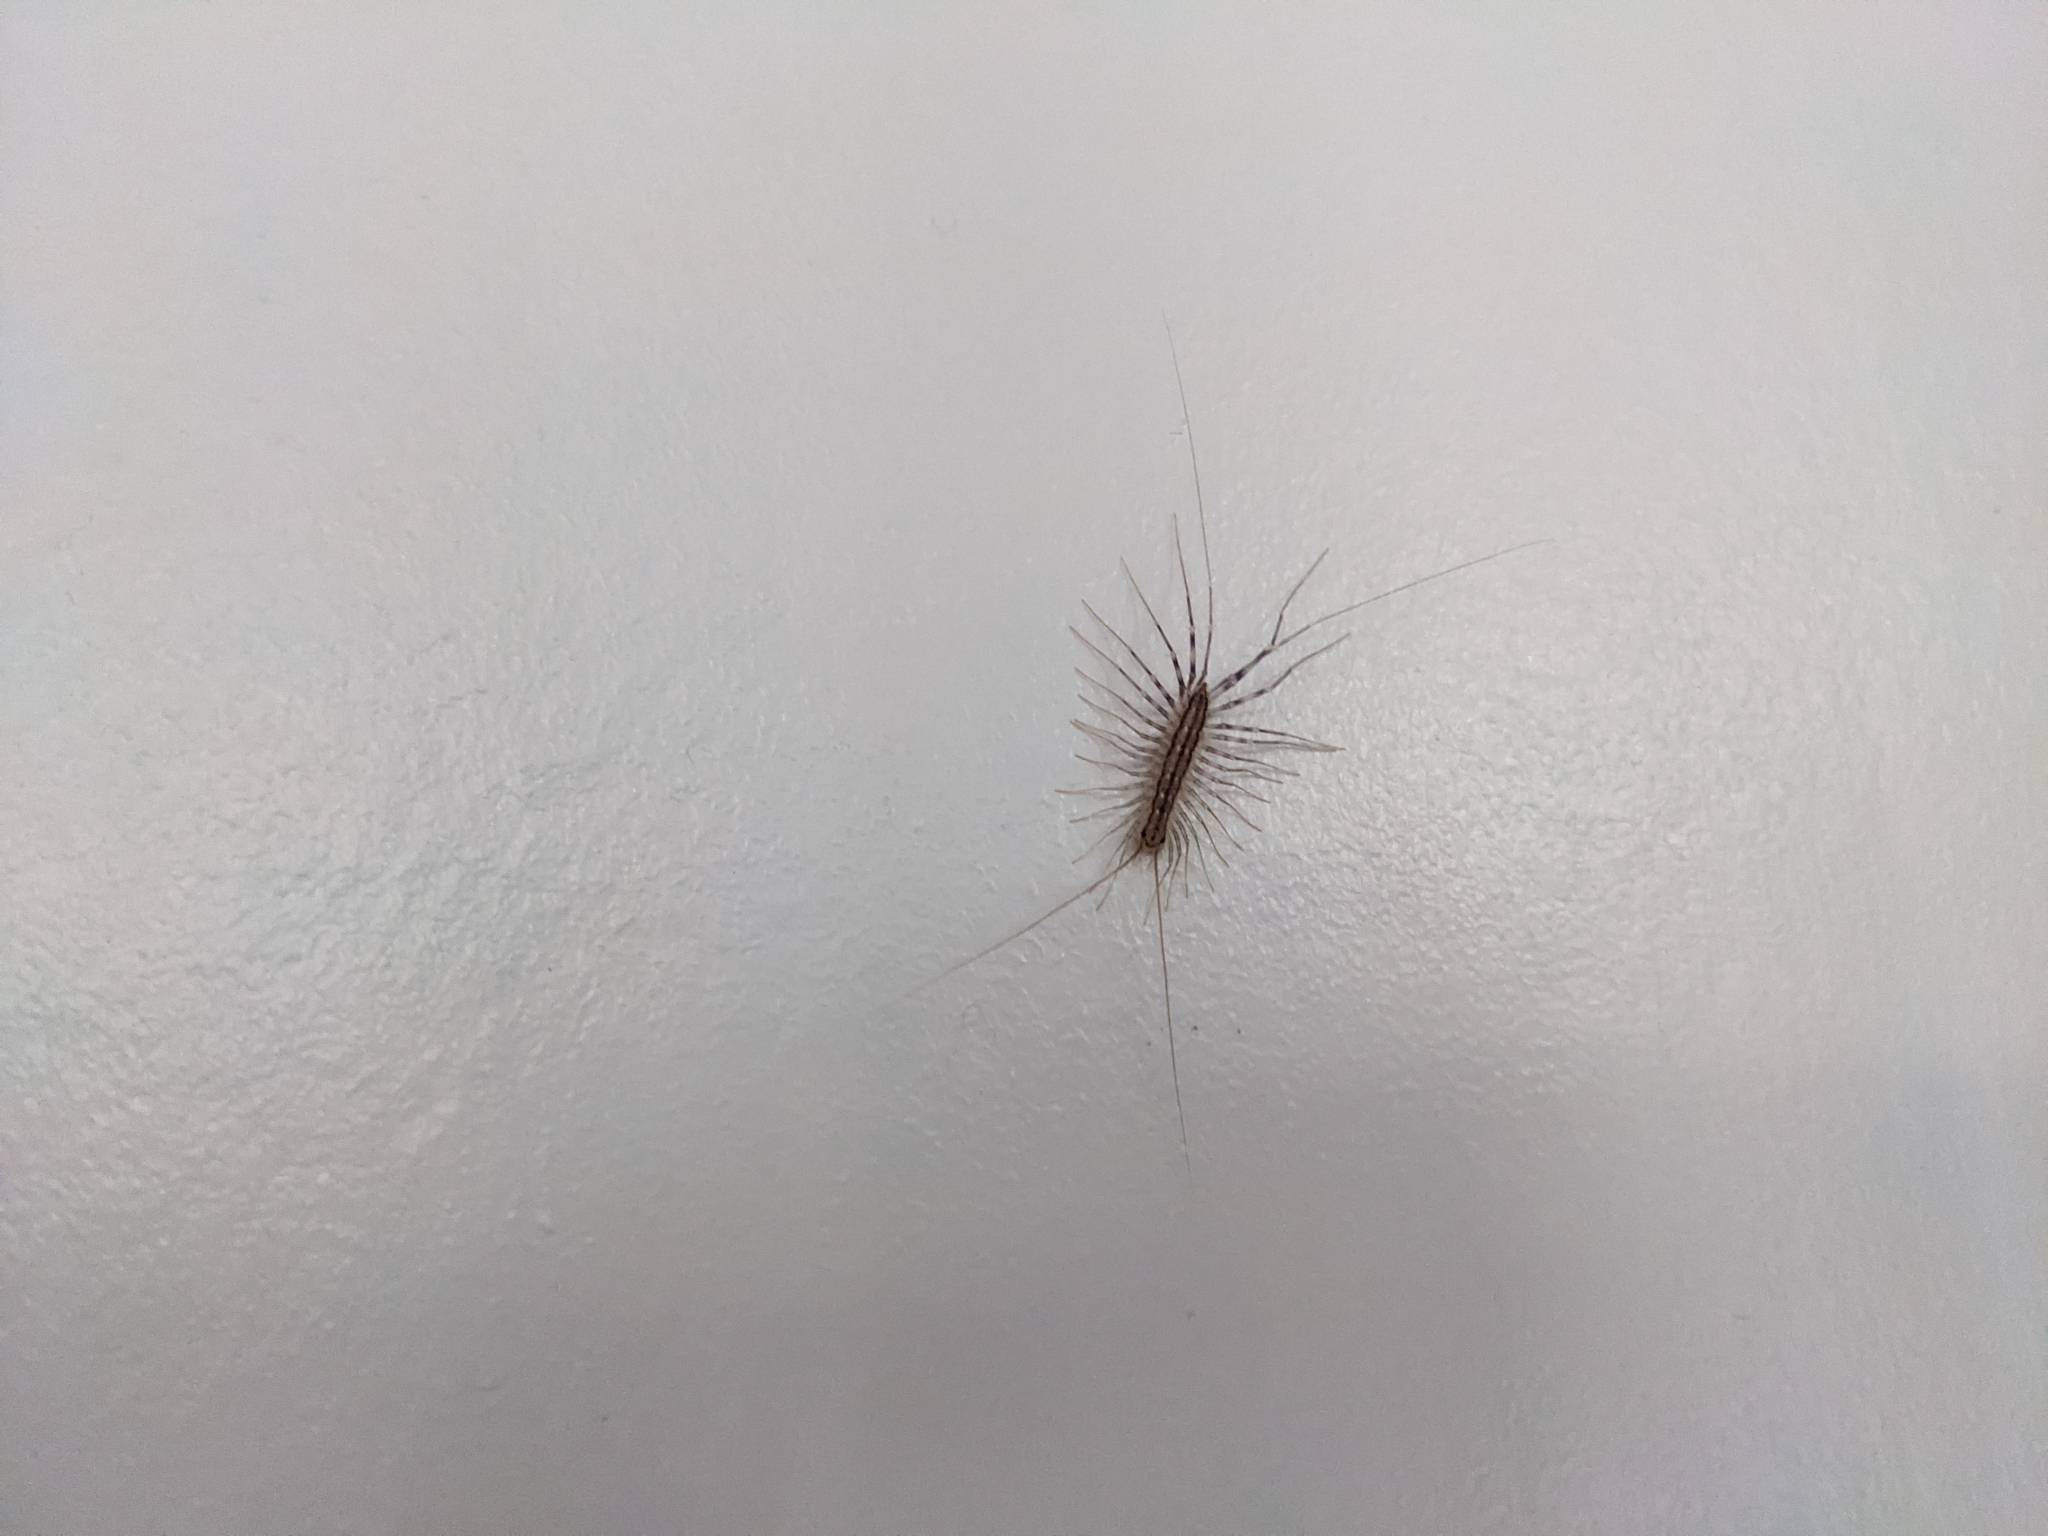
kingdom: Animalia
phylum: Arthropoda
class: Chilopoda
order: Scutigeromorpha
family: Scutigeridae
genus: Scutigera
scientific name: Scutigera coleoptrata
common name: House centipede
